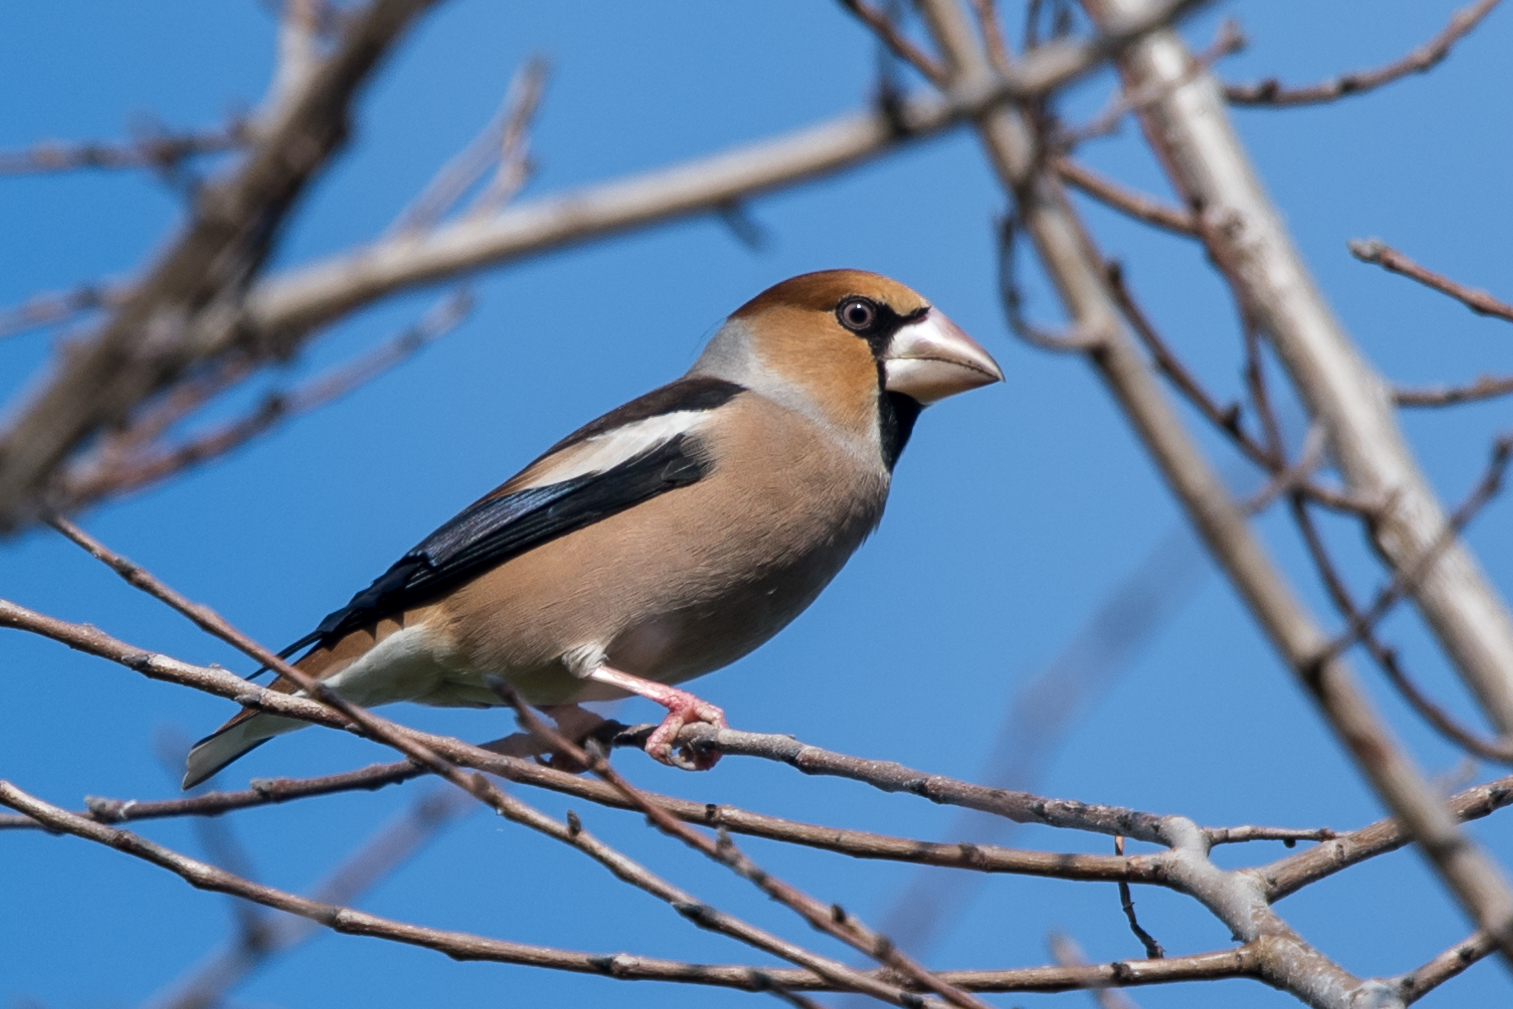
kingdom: Animalia
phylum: Chordata
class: Aves
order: Passeriformes
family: Fringillidae
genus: Coccothraustes
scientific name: Coccothraustes coccothraustes
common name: Hawfinch
